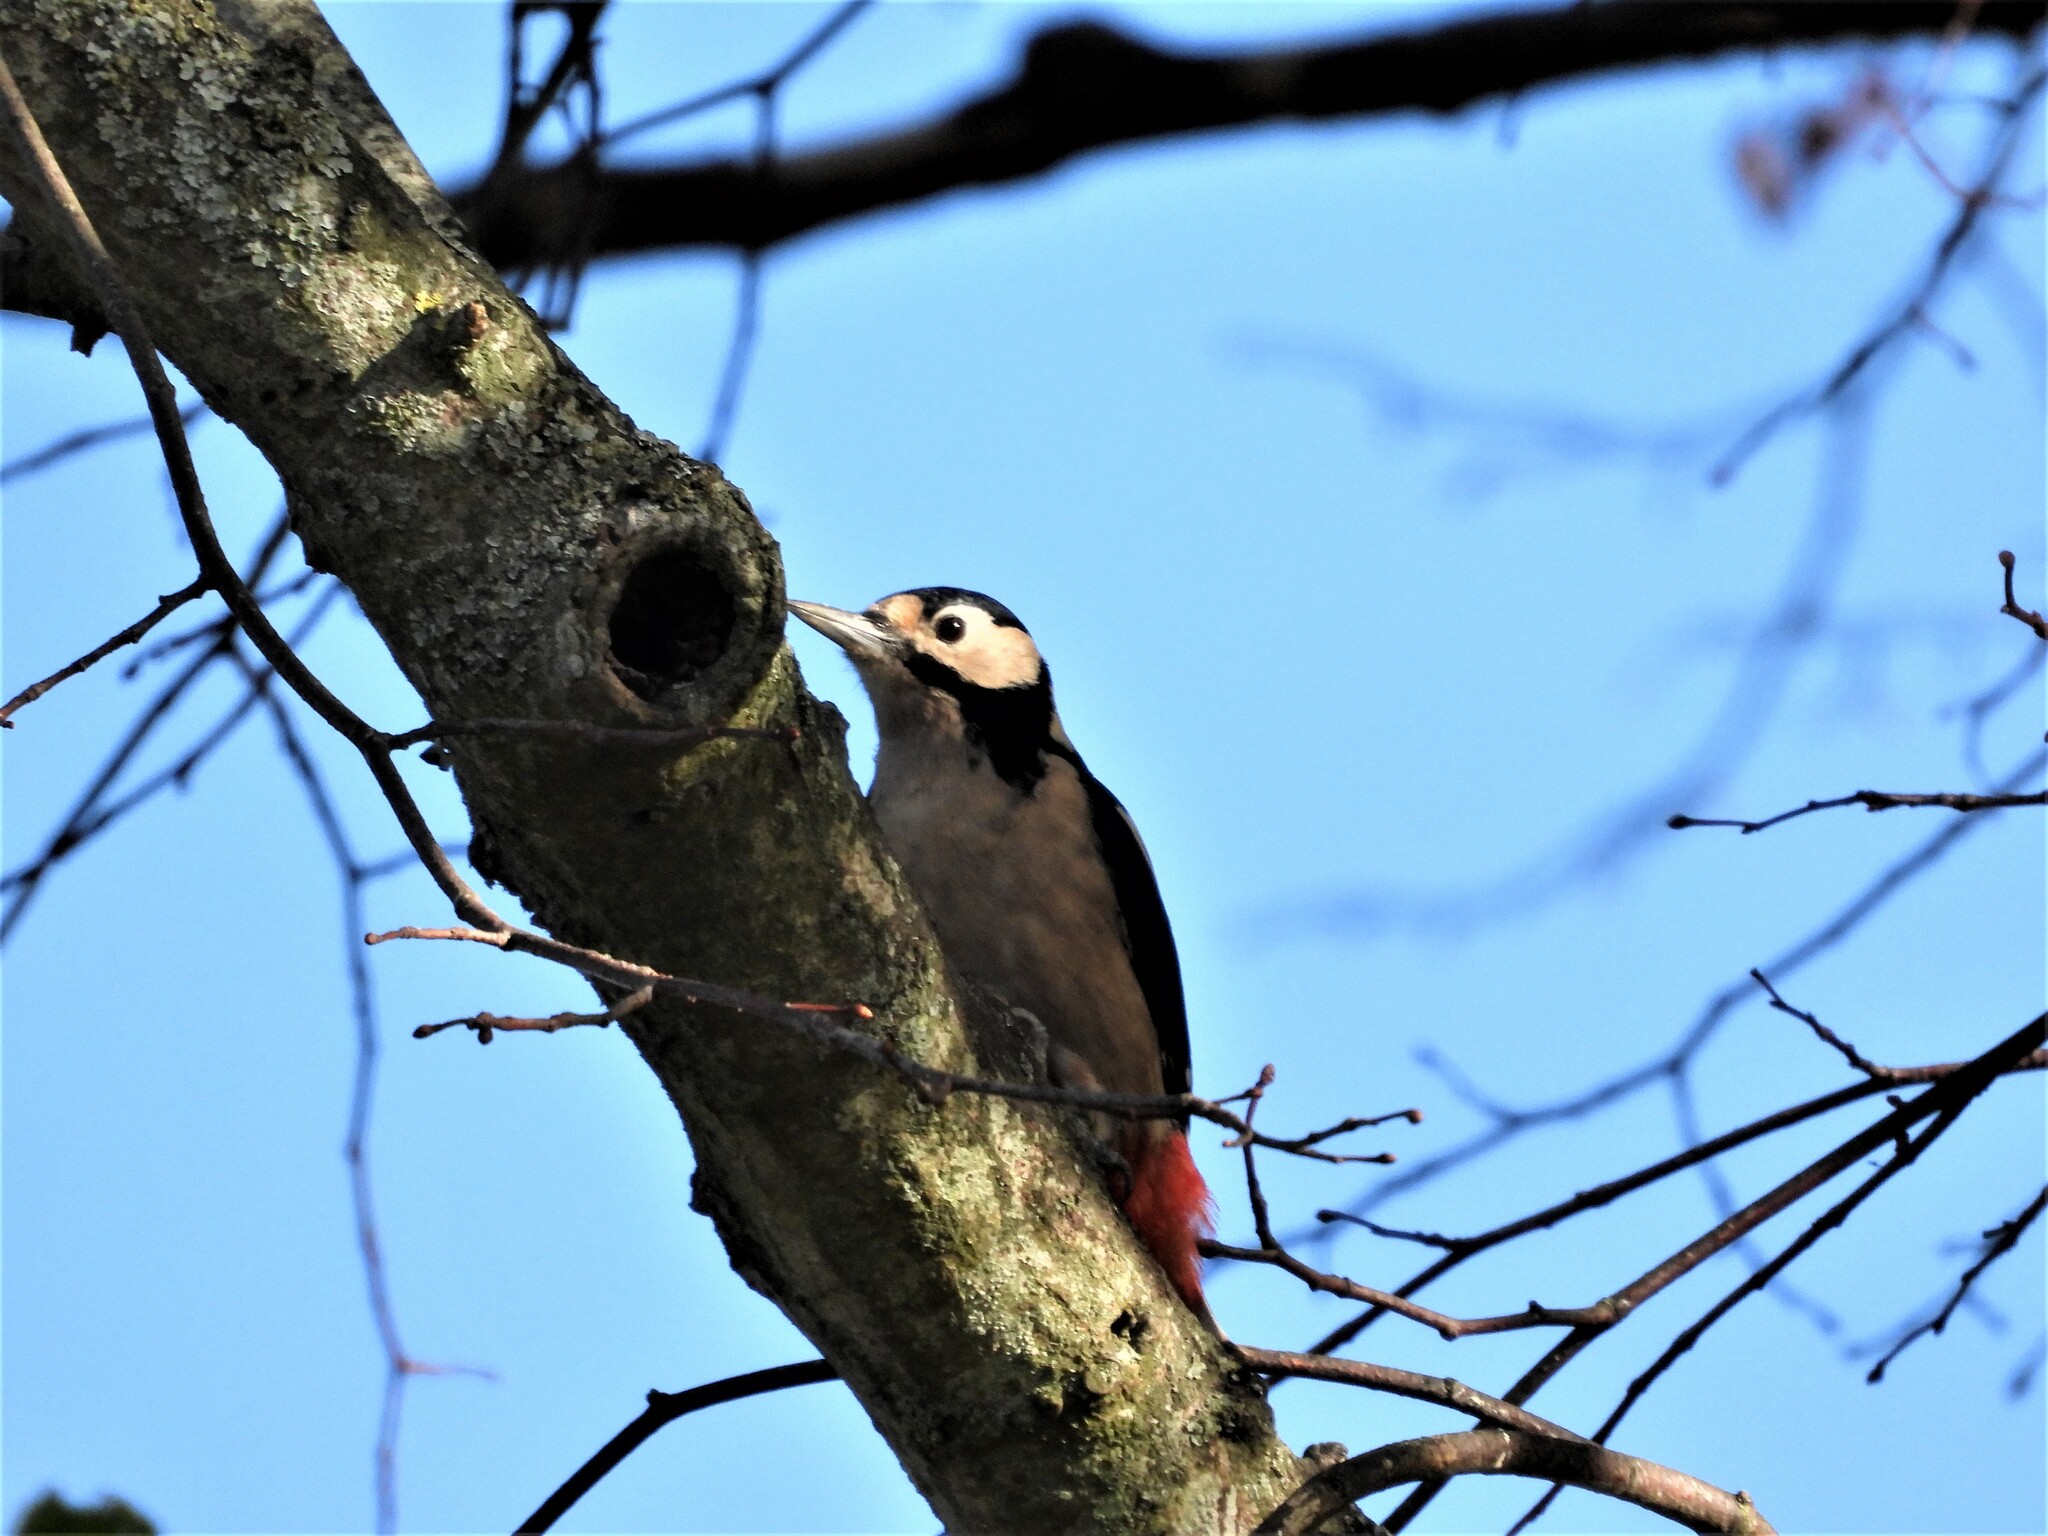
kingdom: Animalia
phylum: Chordata
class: Aves
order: Piciformes
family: Picidae
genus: Dendrocopos
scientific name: Dendrocopos major
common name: Great spotted woodpecker
